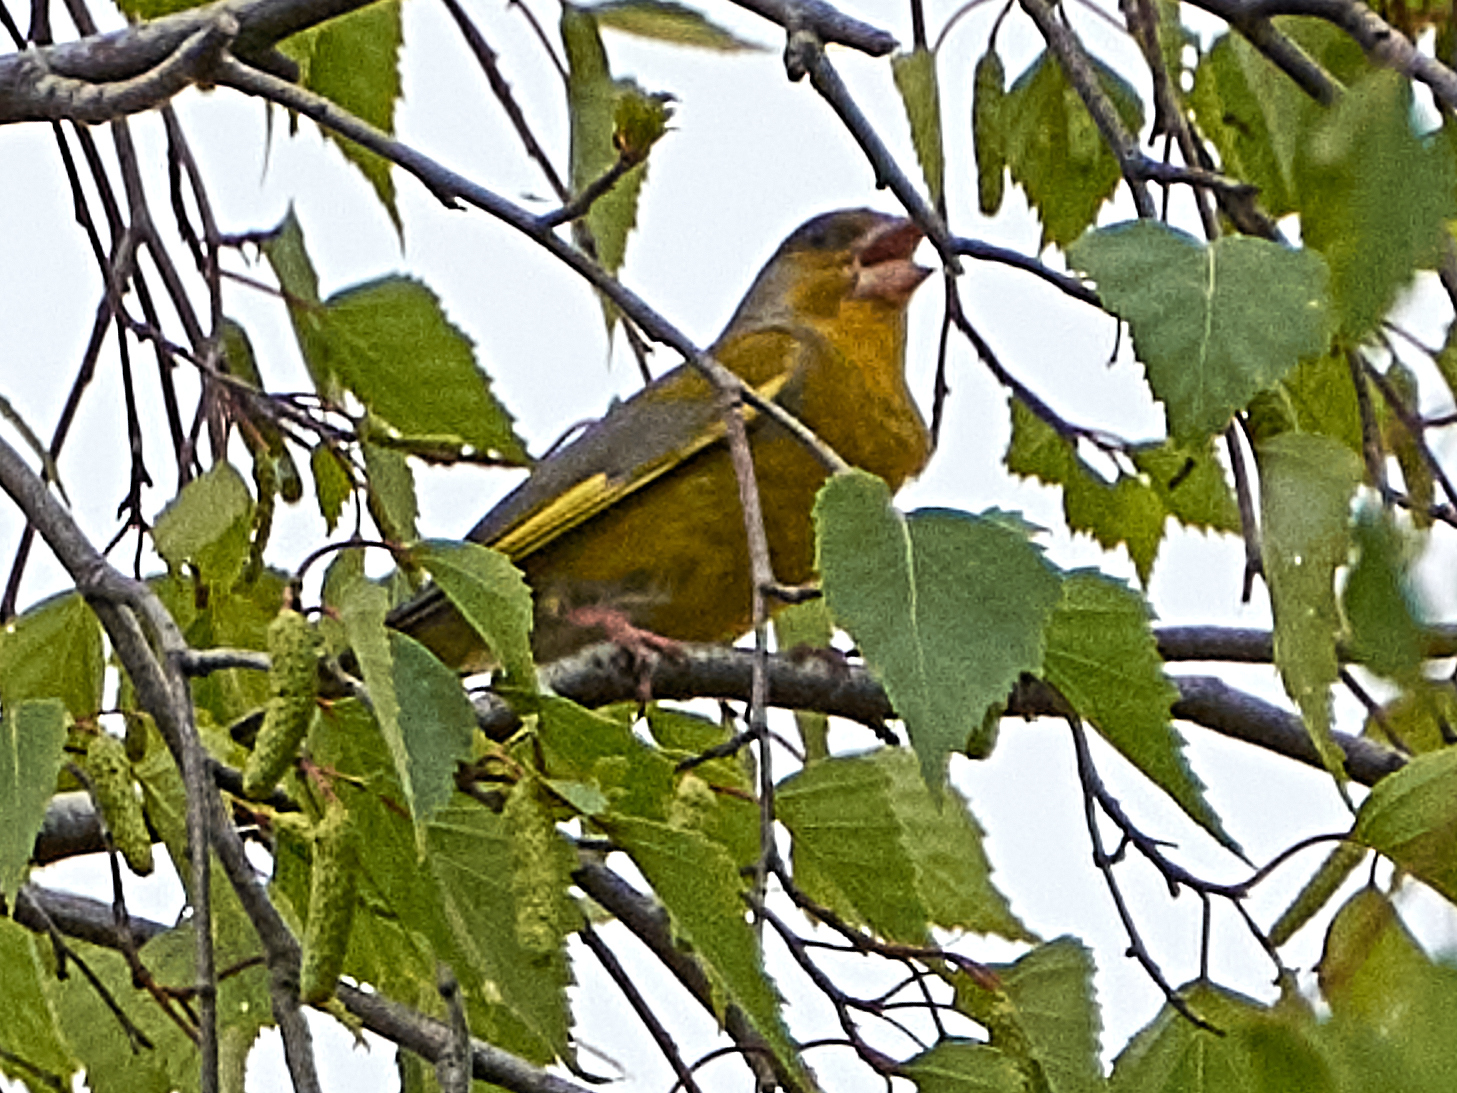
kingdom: Plantae
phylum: Tracheophyta
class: Liliopsida
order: Poales
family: Poaceae
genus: Chloris
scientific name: Chloris chloris
